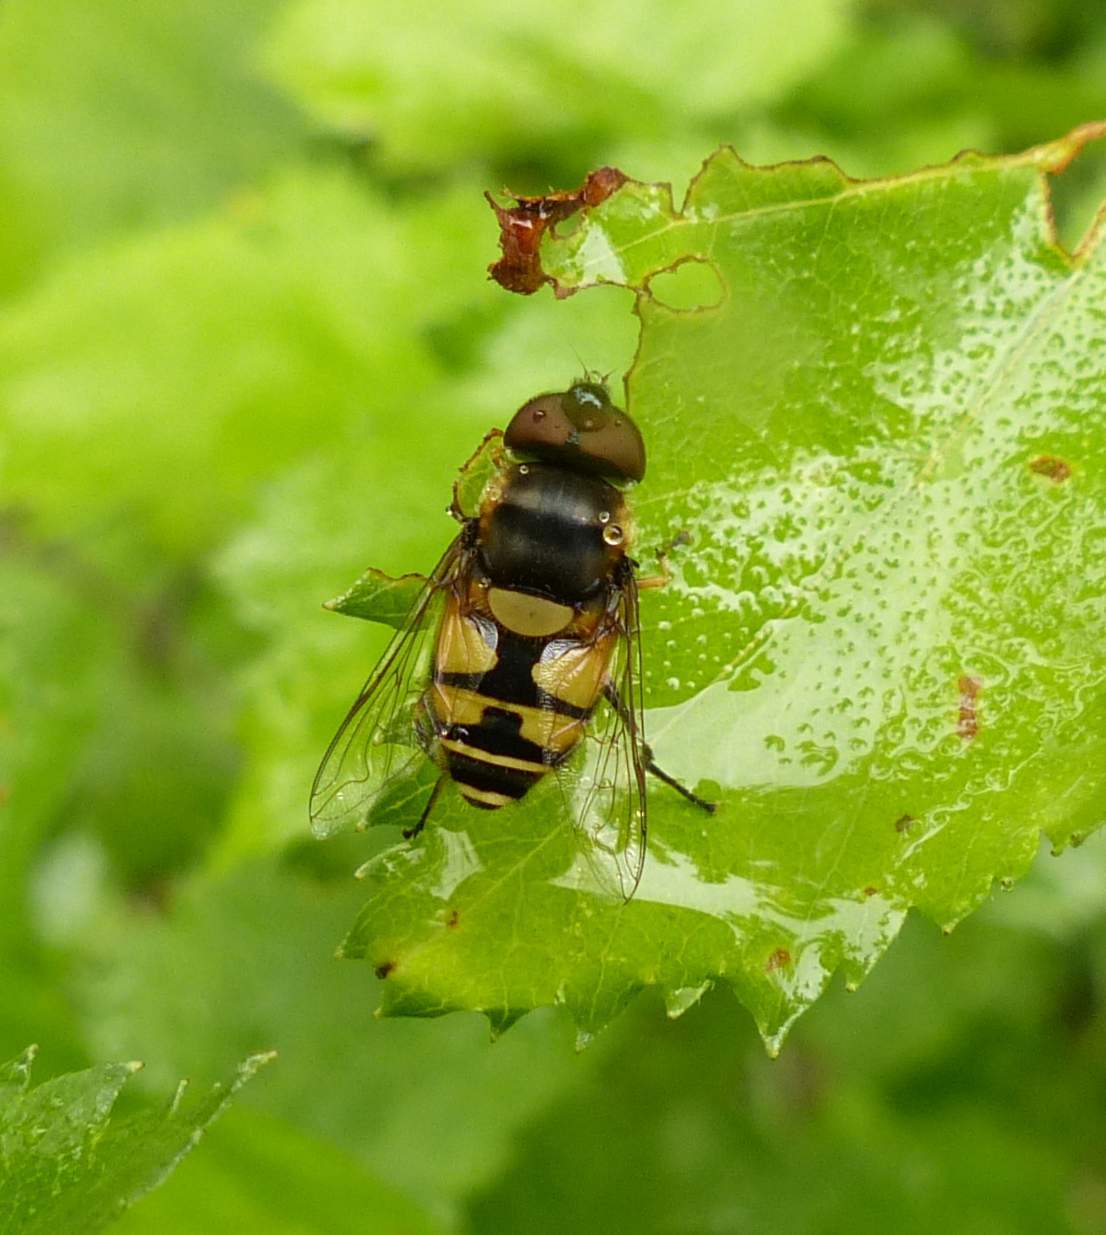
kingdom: Animalia
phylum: Arthropoda
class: Insecta
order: Diptera
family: Syrphidae
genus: Eristalis
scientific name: Eristalis transversa
